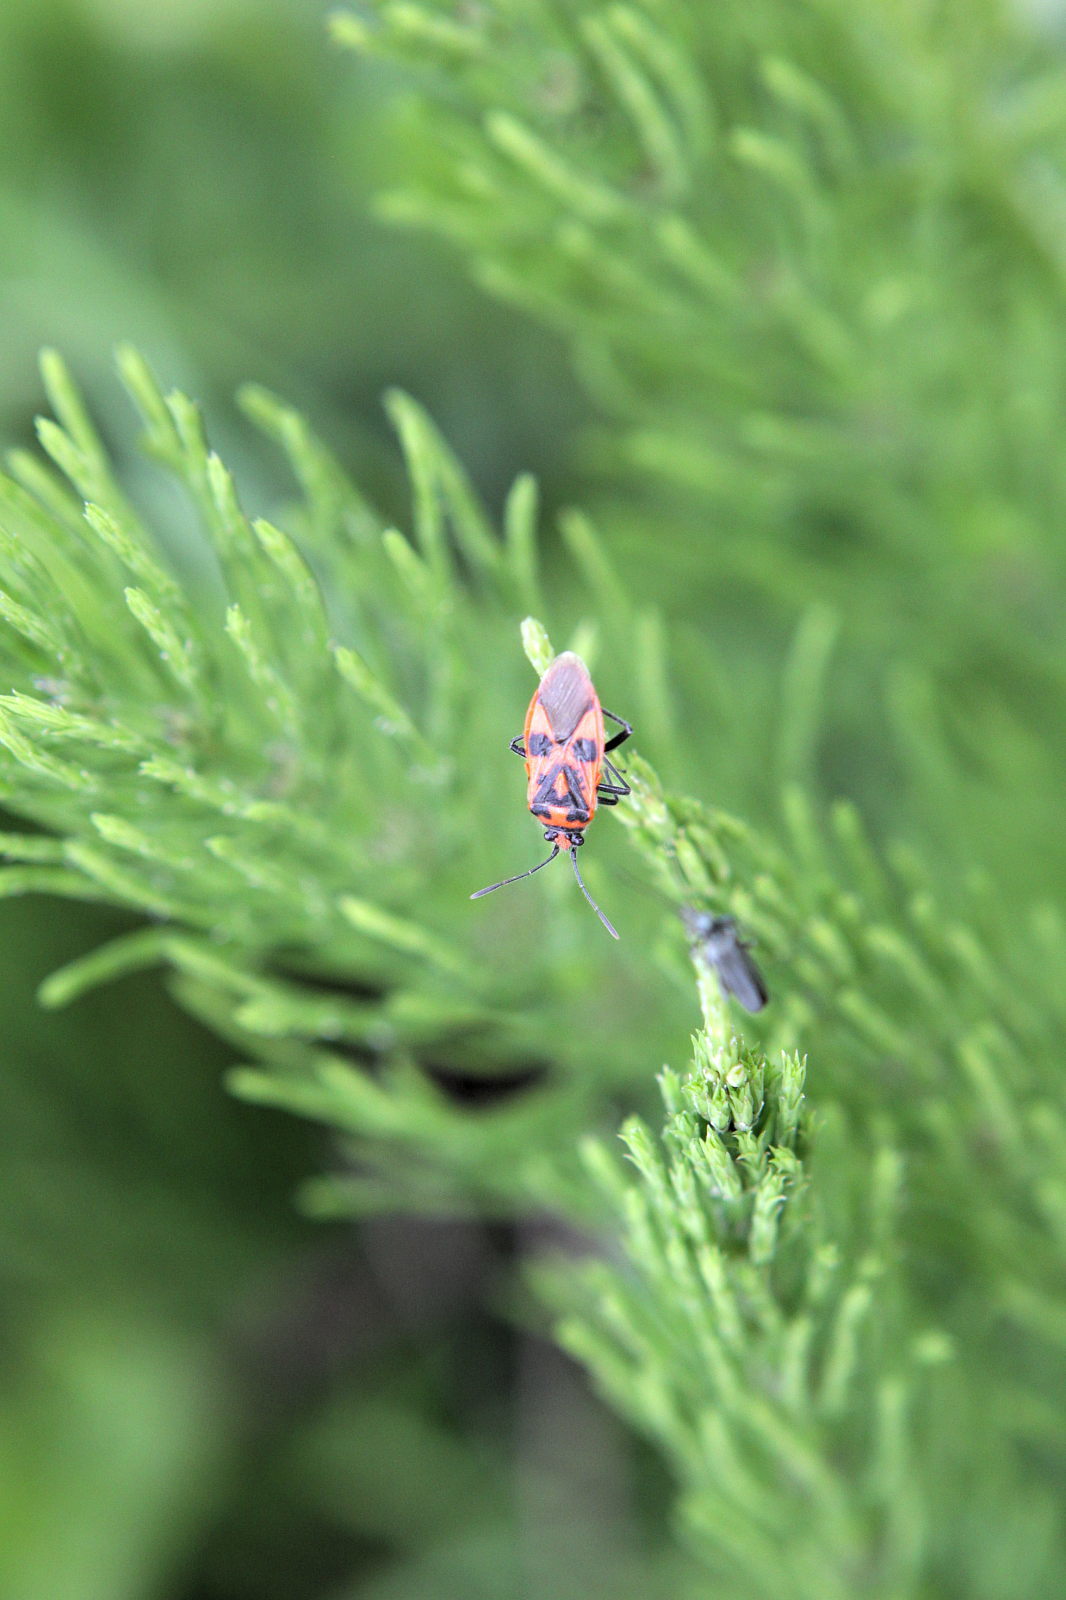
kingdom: Animalia
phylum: Arthropoda
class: Insecta
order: Hemiptera
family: Rhopalidae
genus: Corizus
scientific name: Corizus hyoscyami
